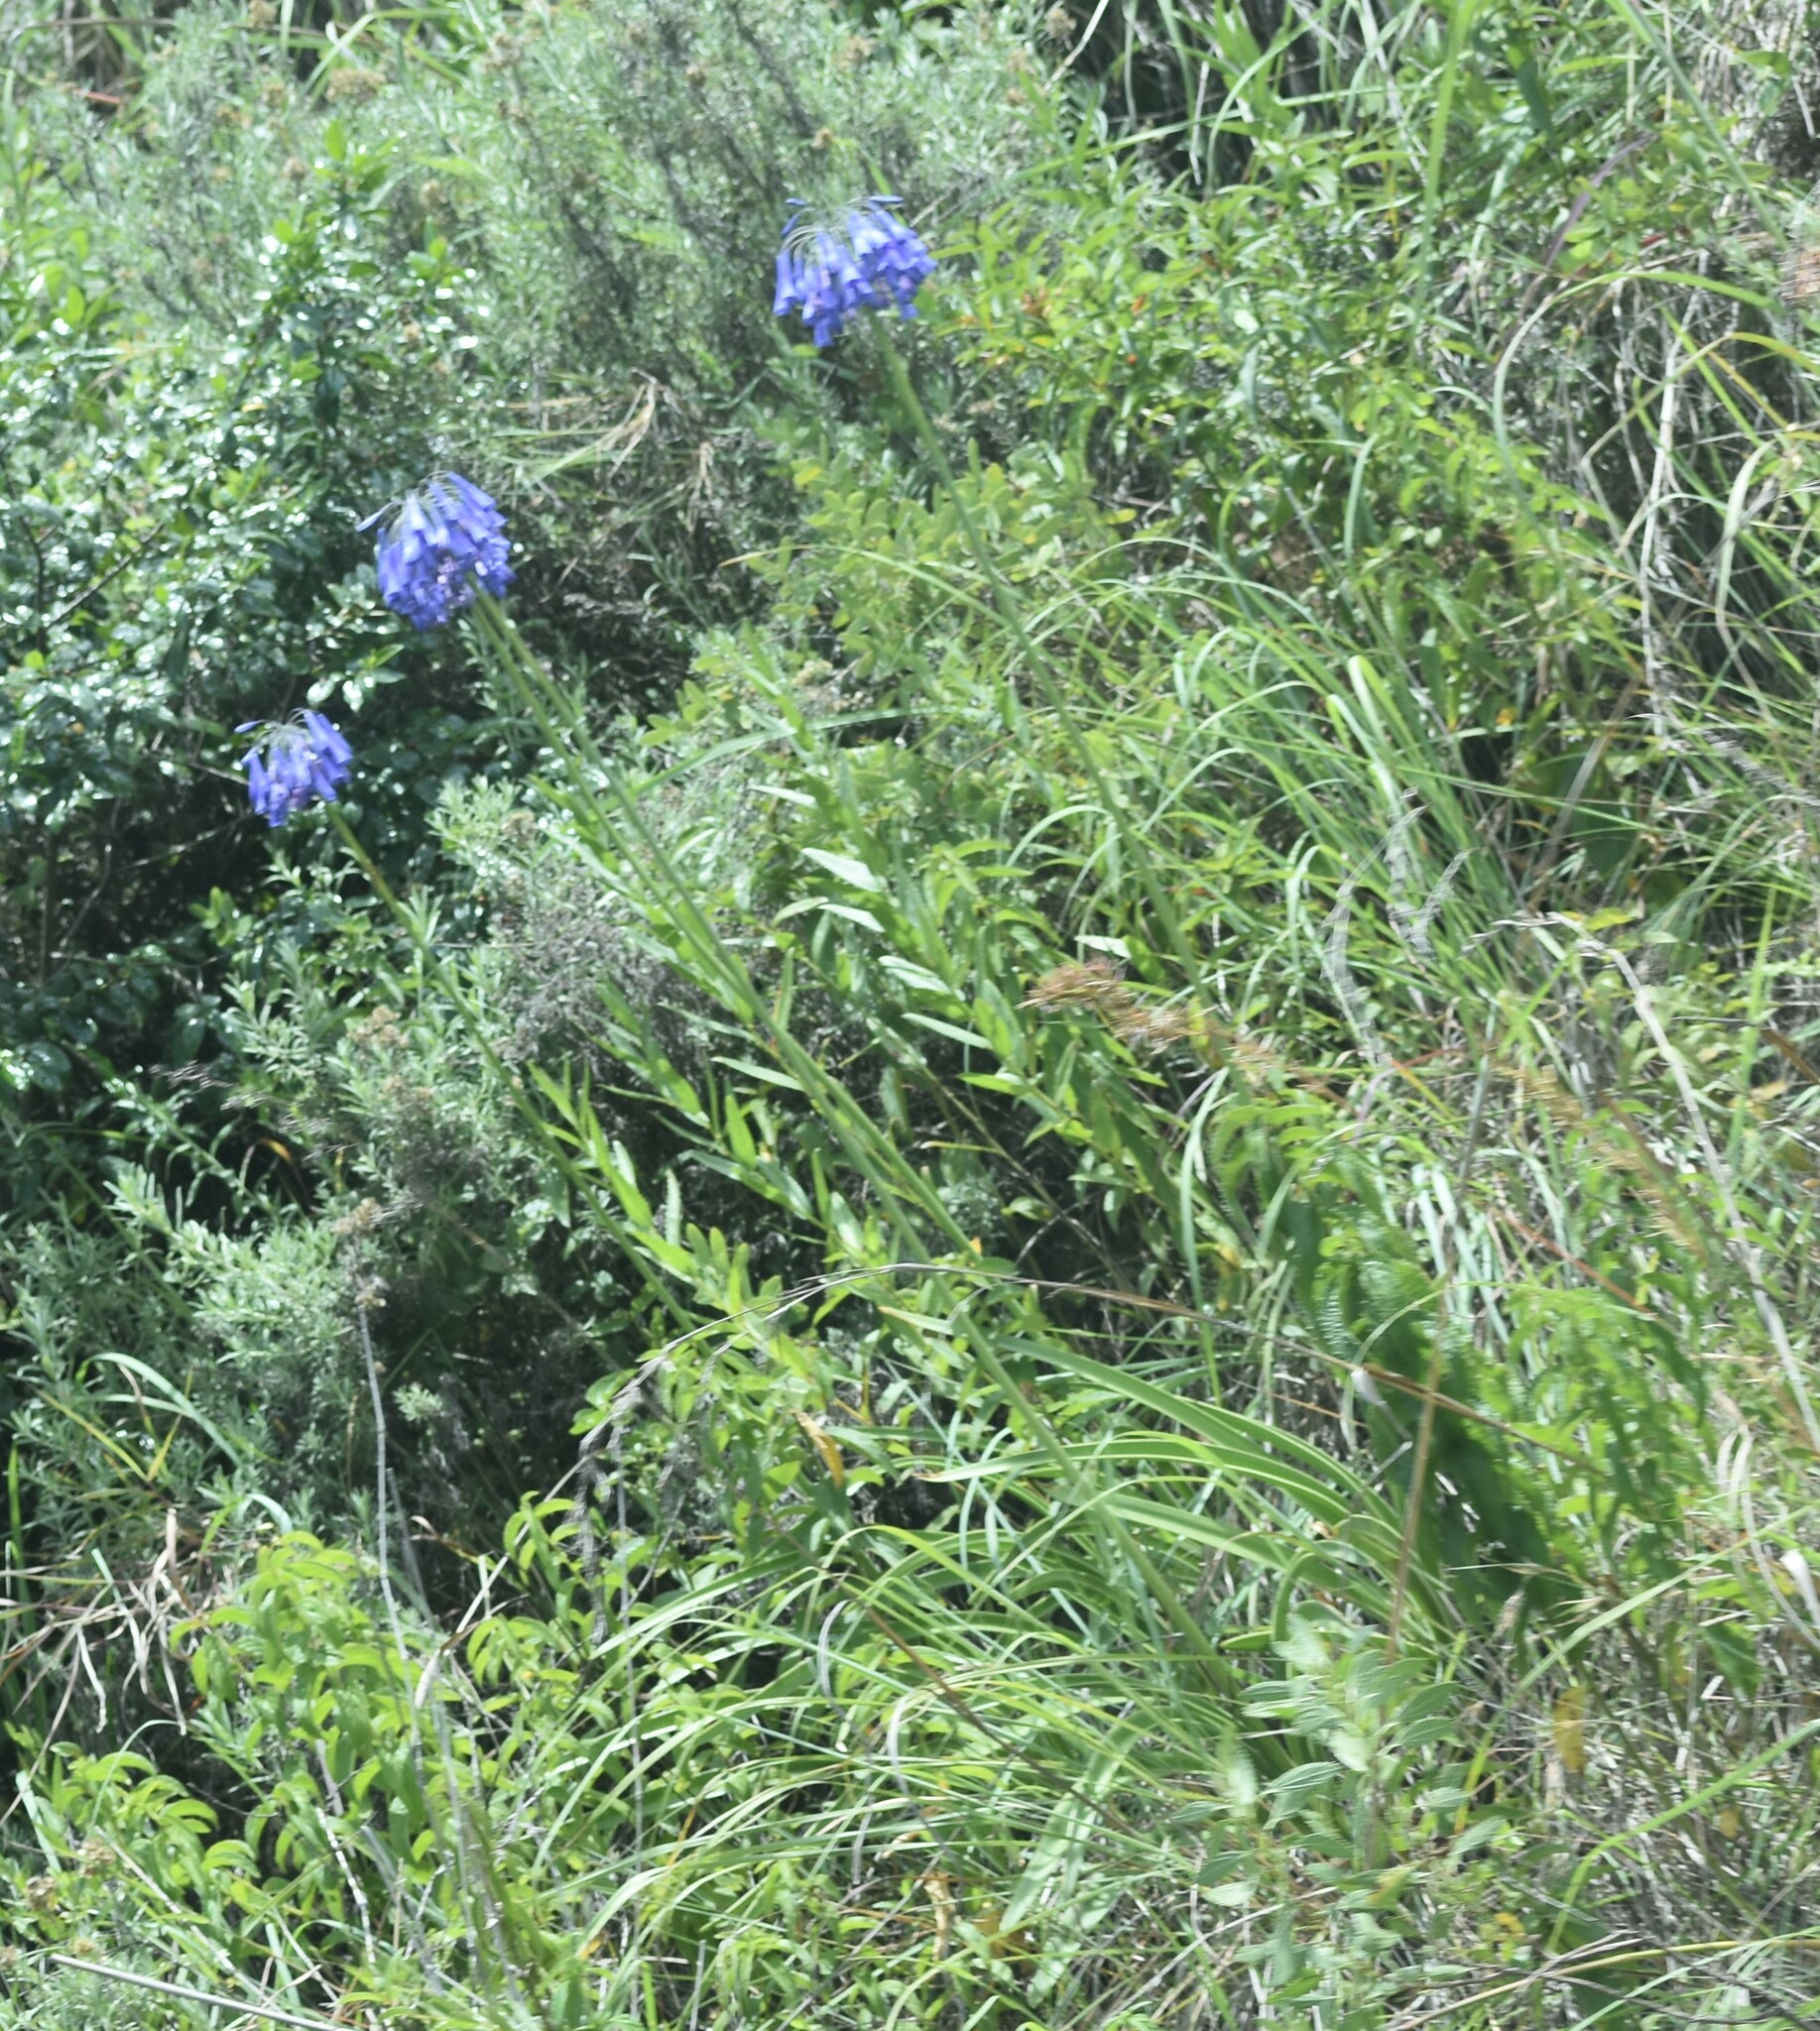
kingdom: Plantae
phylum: Tracheophyta
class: Liliopsida
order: Asparagales
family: Amaryllidaceae
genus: Agapanthus
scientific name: Agapanthus inapertus
